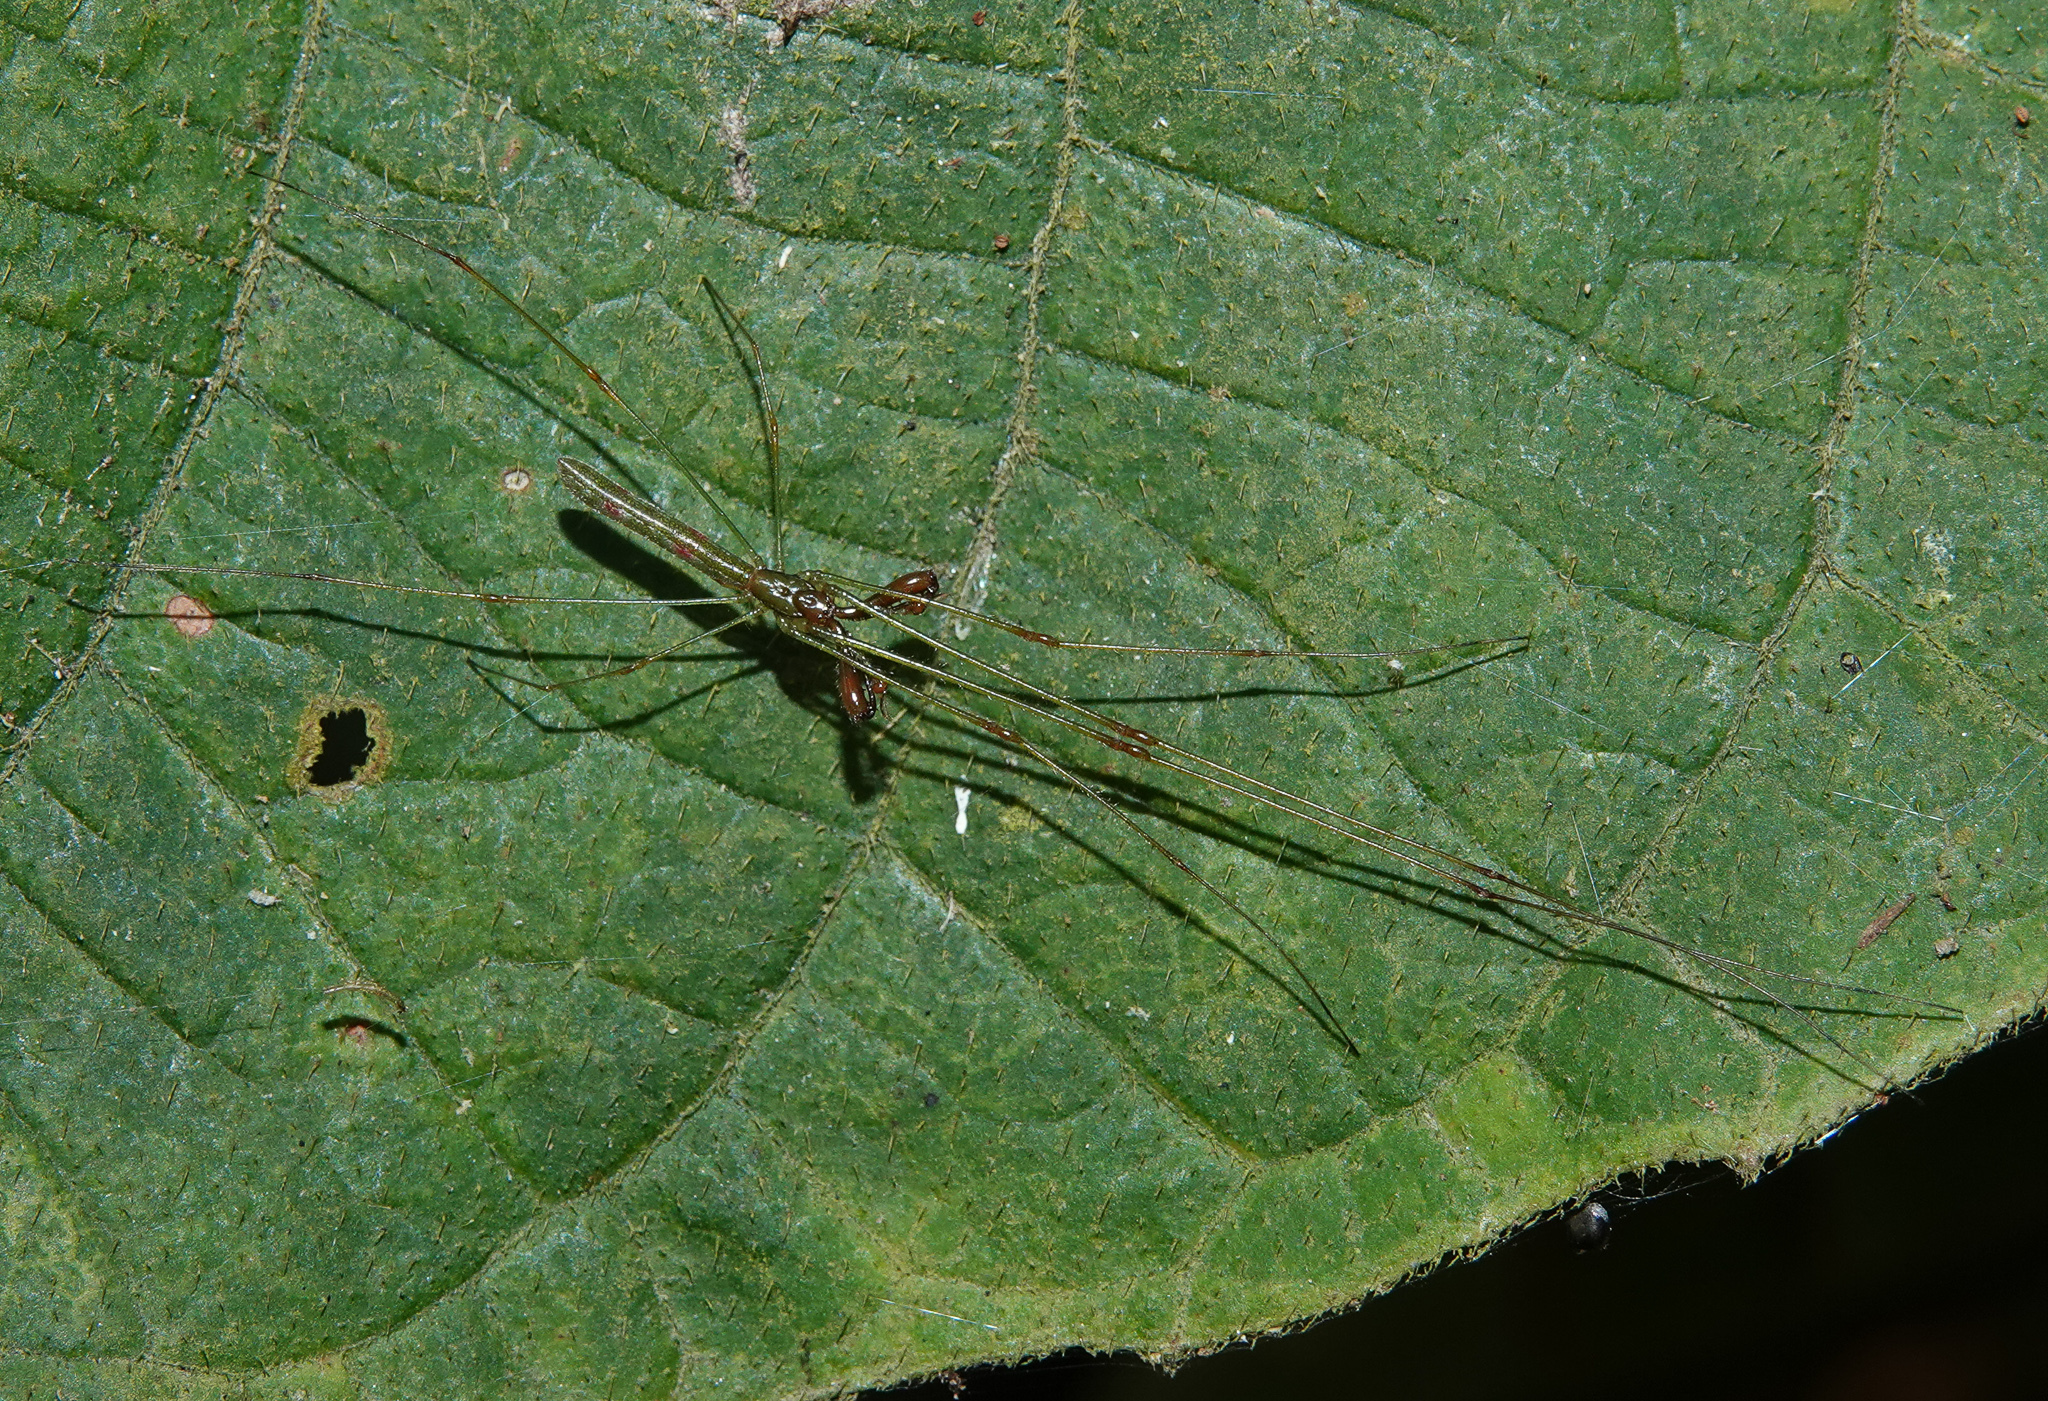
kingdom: Animalia
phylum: Arthropoda
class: Arachnida
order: Araneae
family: Tetragnathidae
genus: Tetragnatha
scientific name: Tetragnatha hasselti
